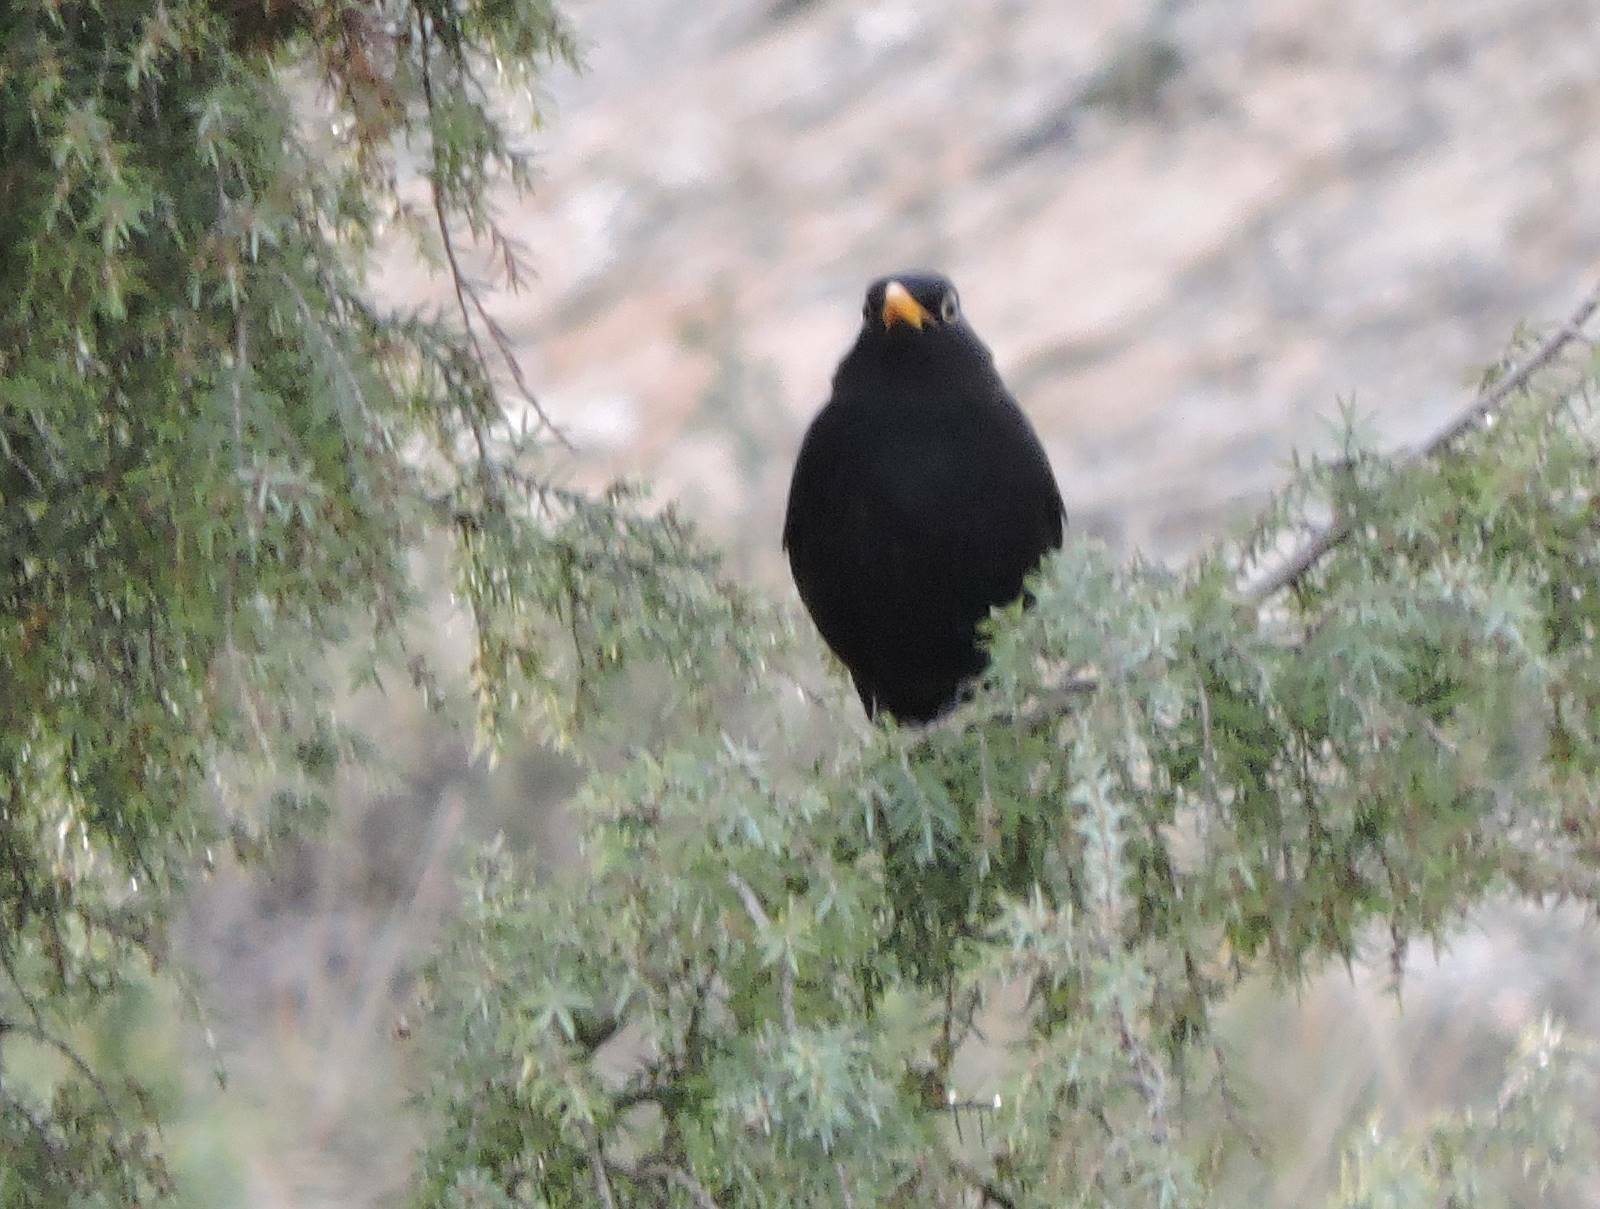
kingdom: Animalia
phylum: Chordata
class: Aves
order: Passeriformes
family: Turdidae
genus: Turdus
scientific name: Turdus merula
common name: Common blackbird
